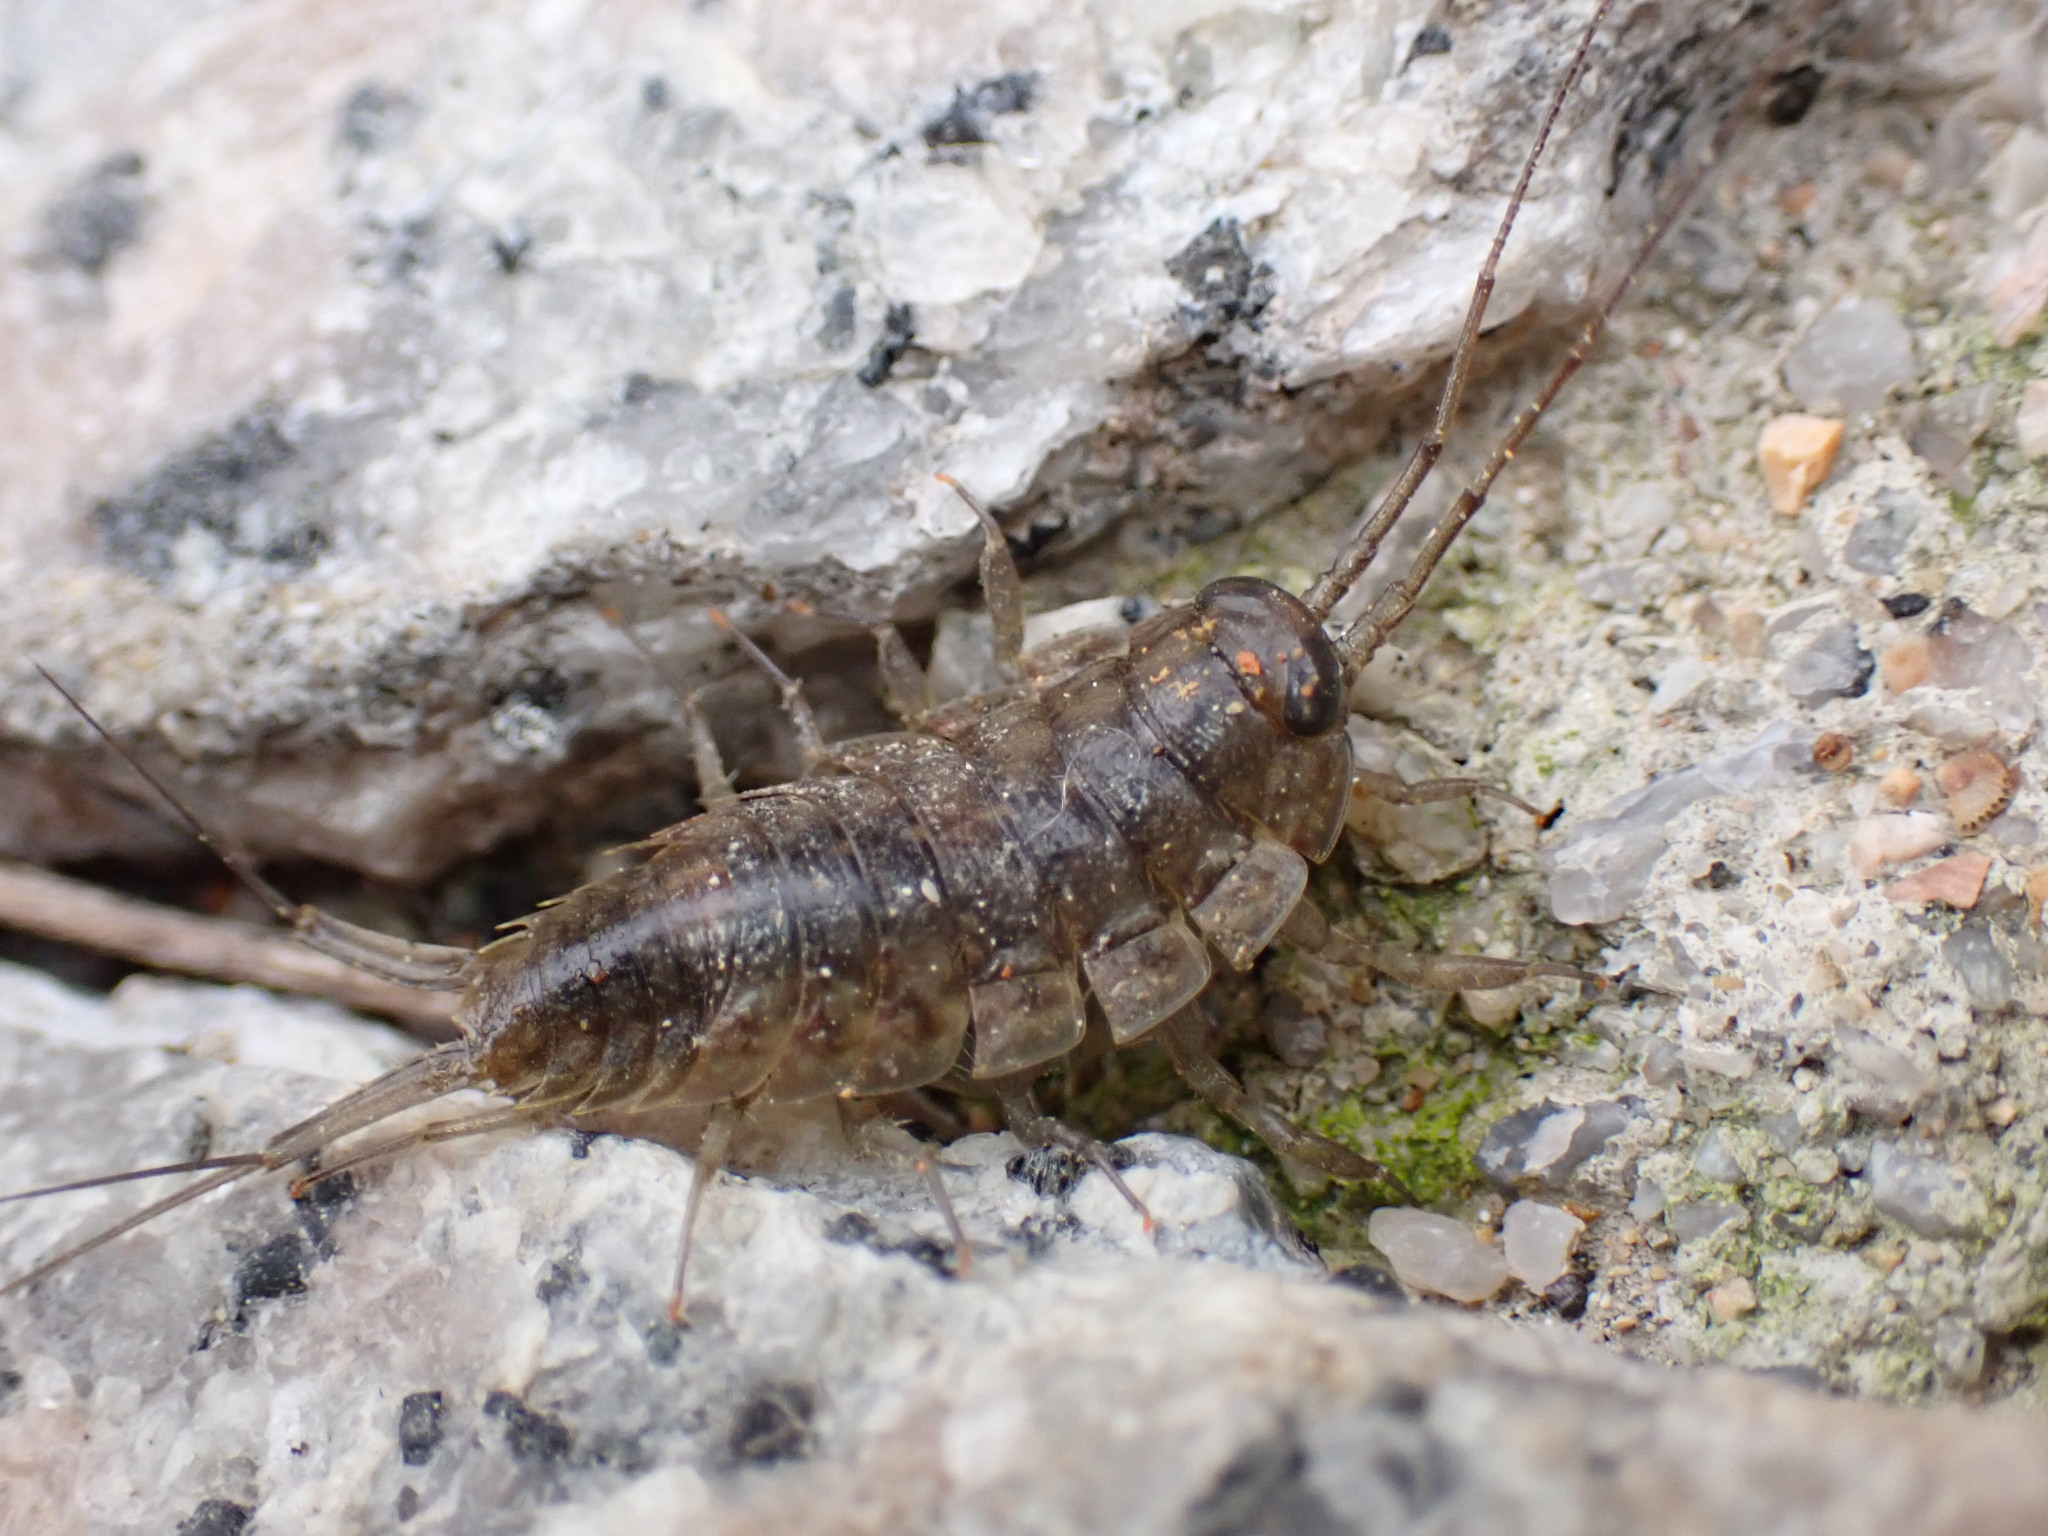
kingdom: Animalia
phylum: Arthropoda
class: Malacostraca
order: Isopoda
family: Ligiidae
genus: Ligia
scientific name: Ligia exotica
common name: Wharf roach
